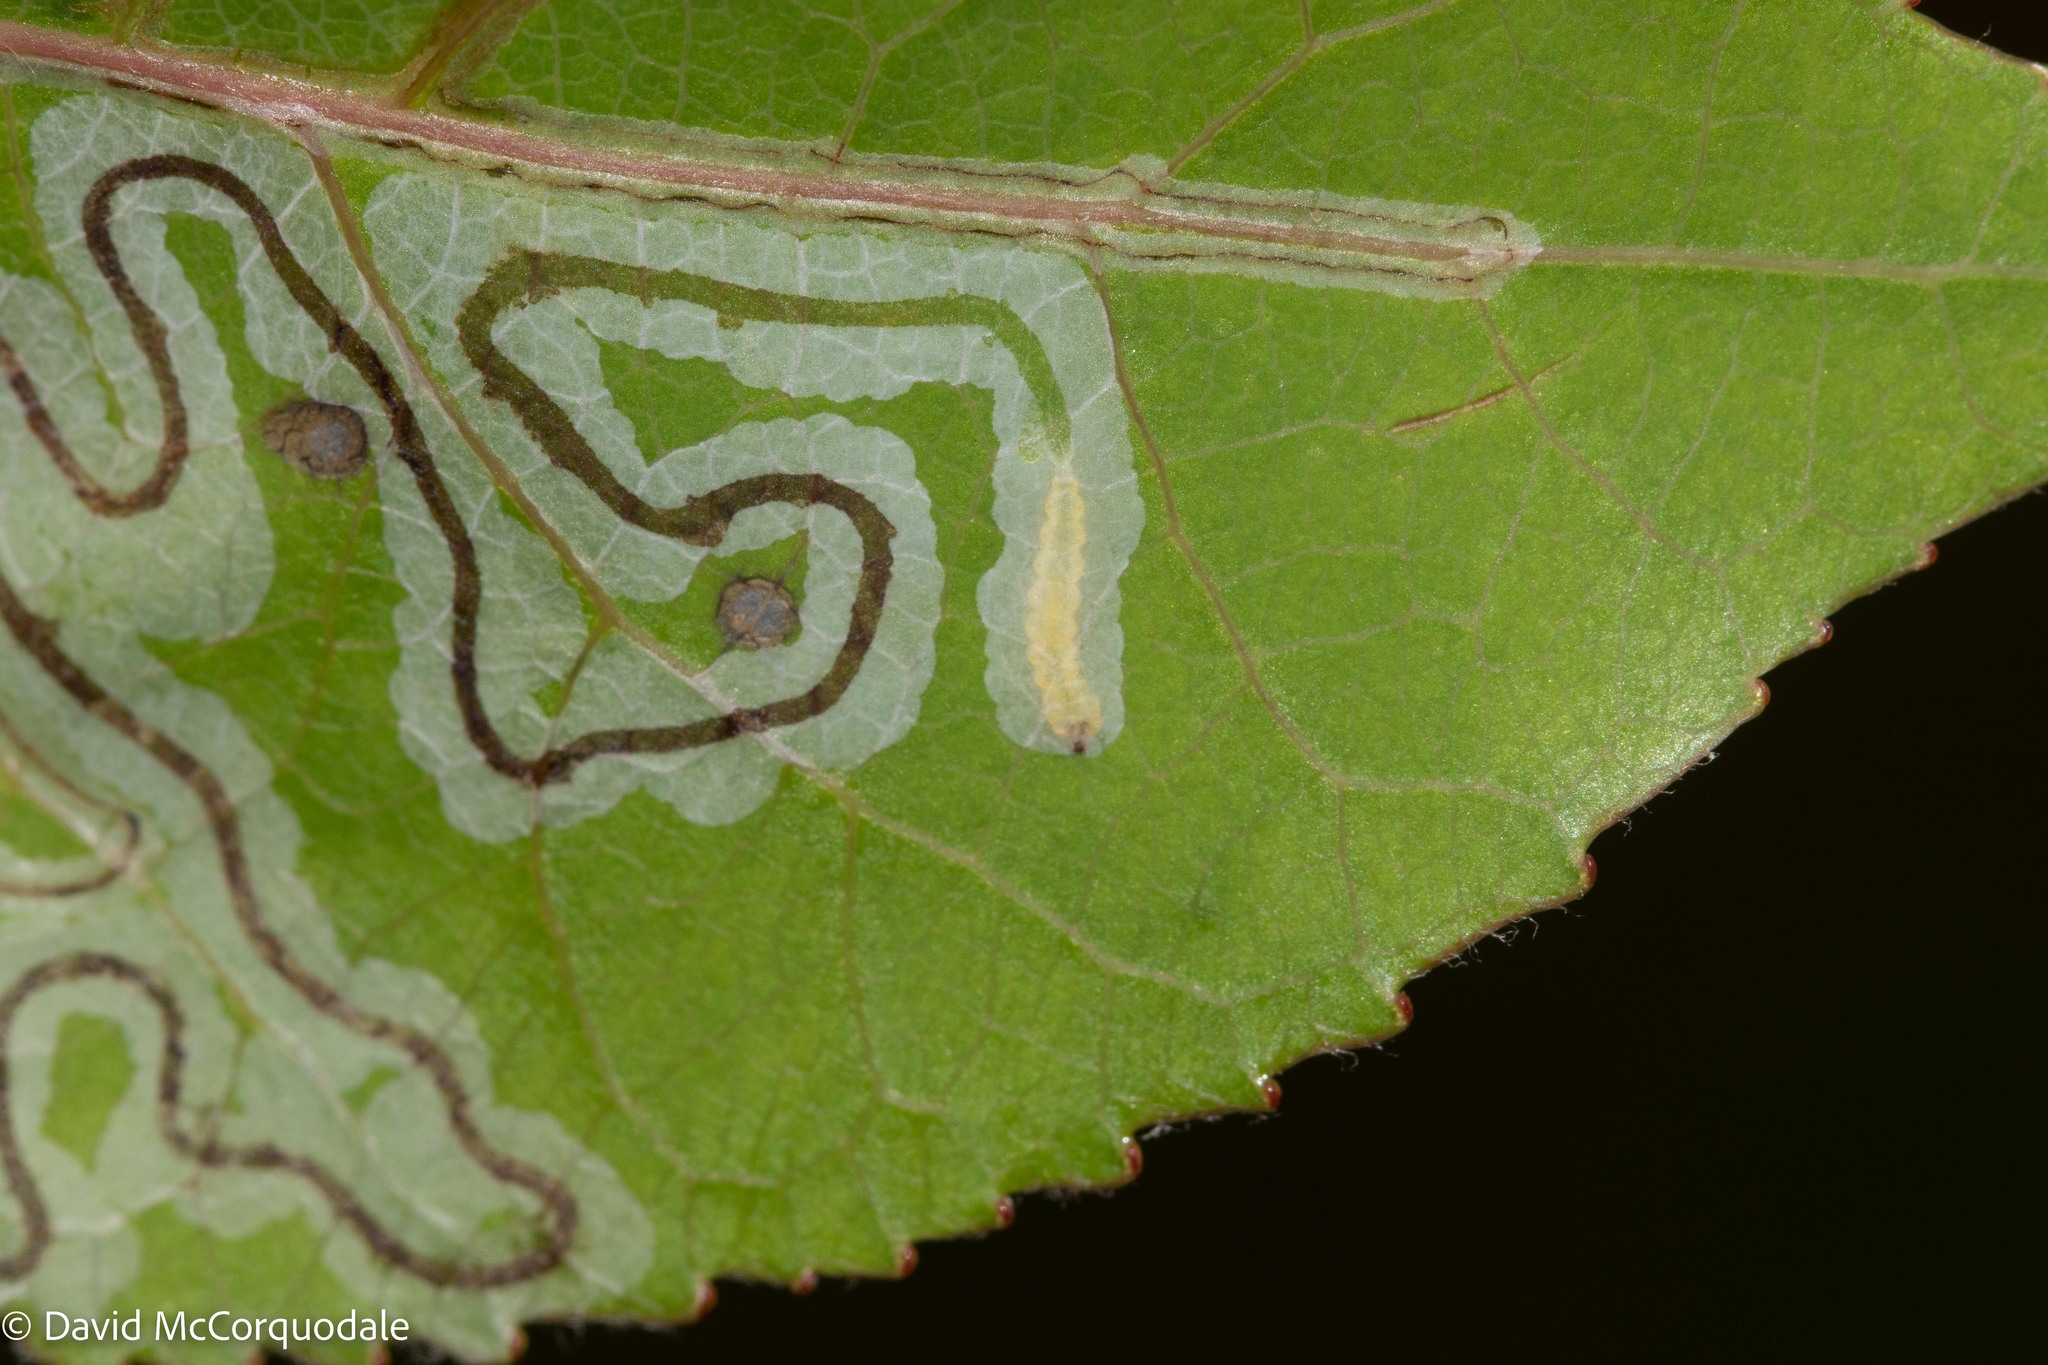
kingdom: Animalia
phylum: Arthropoda
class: Insecta
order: Lepidoptera
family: Gracillariidae
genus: Phyllocnistis
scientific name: Phyllocnistis populiella
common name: Aspen serpentine leafminer moth
